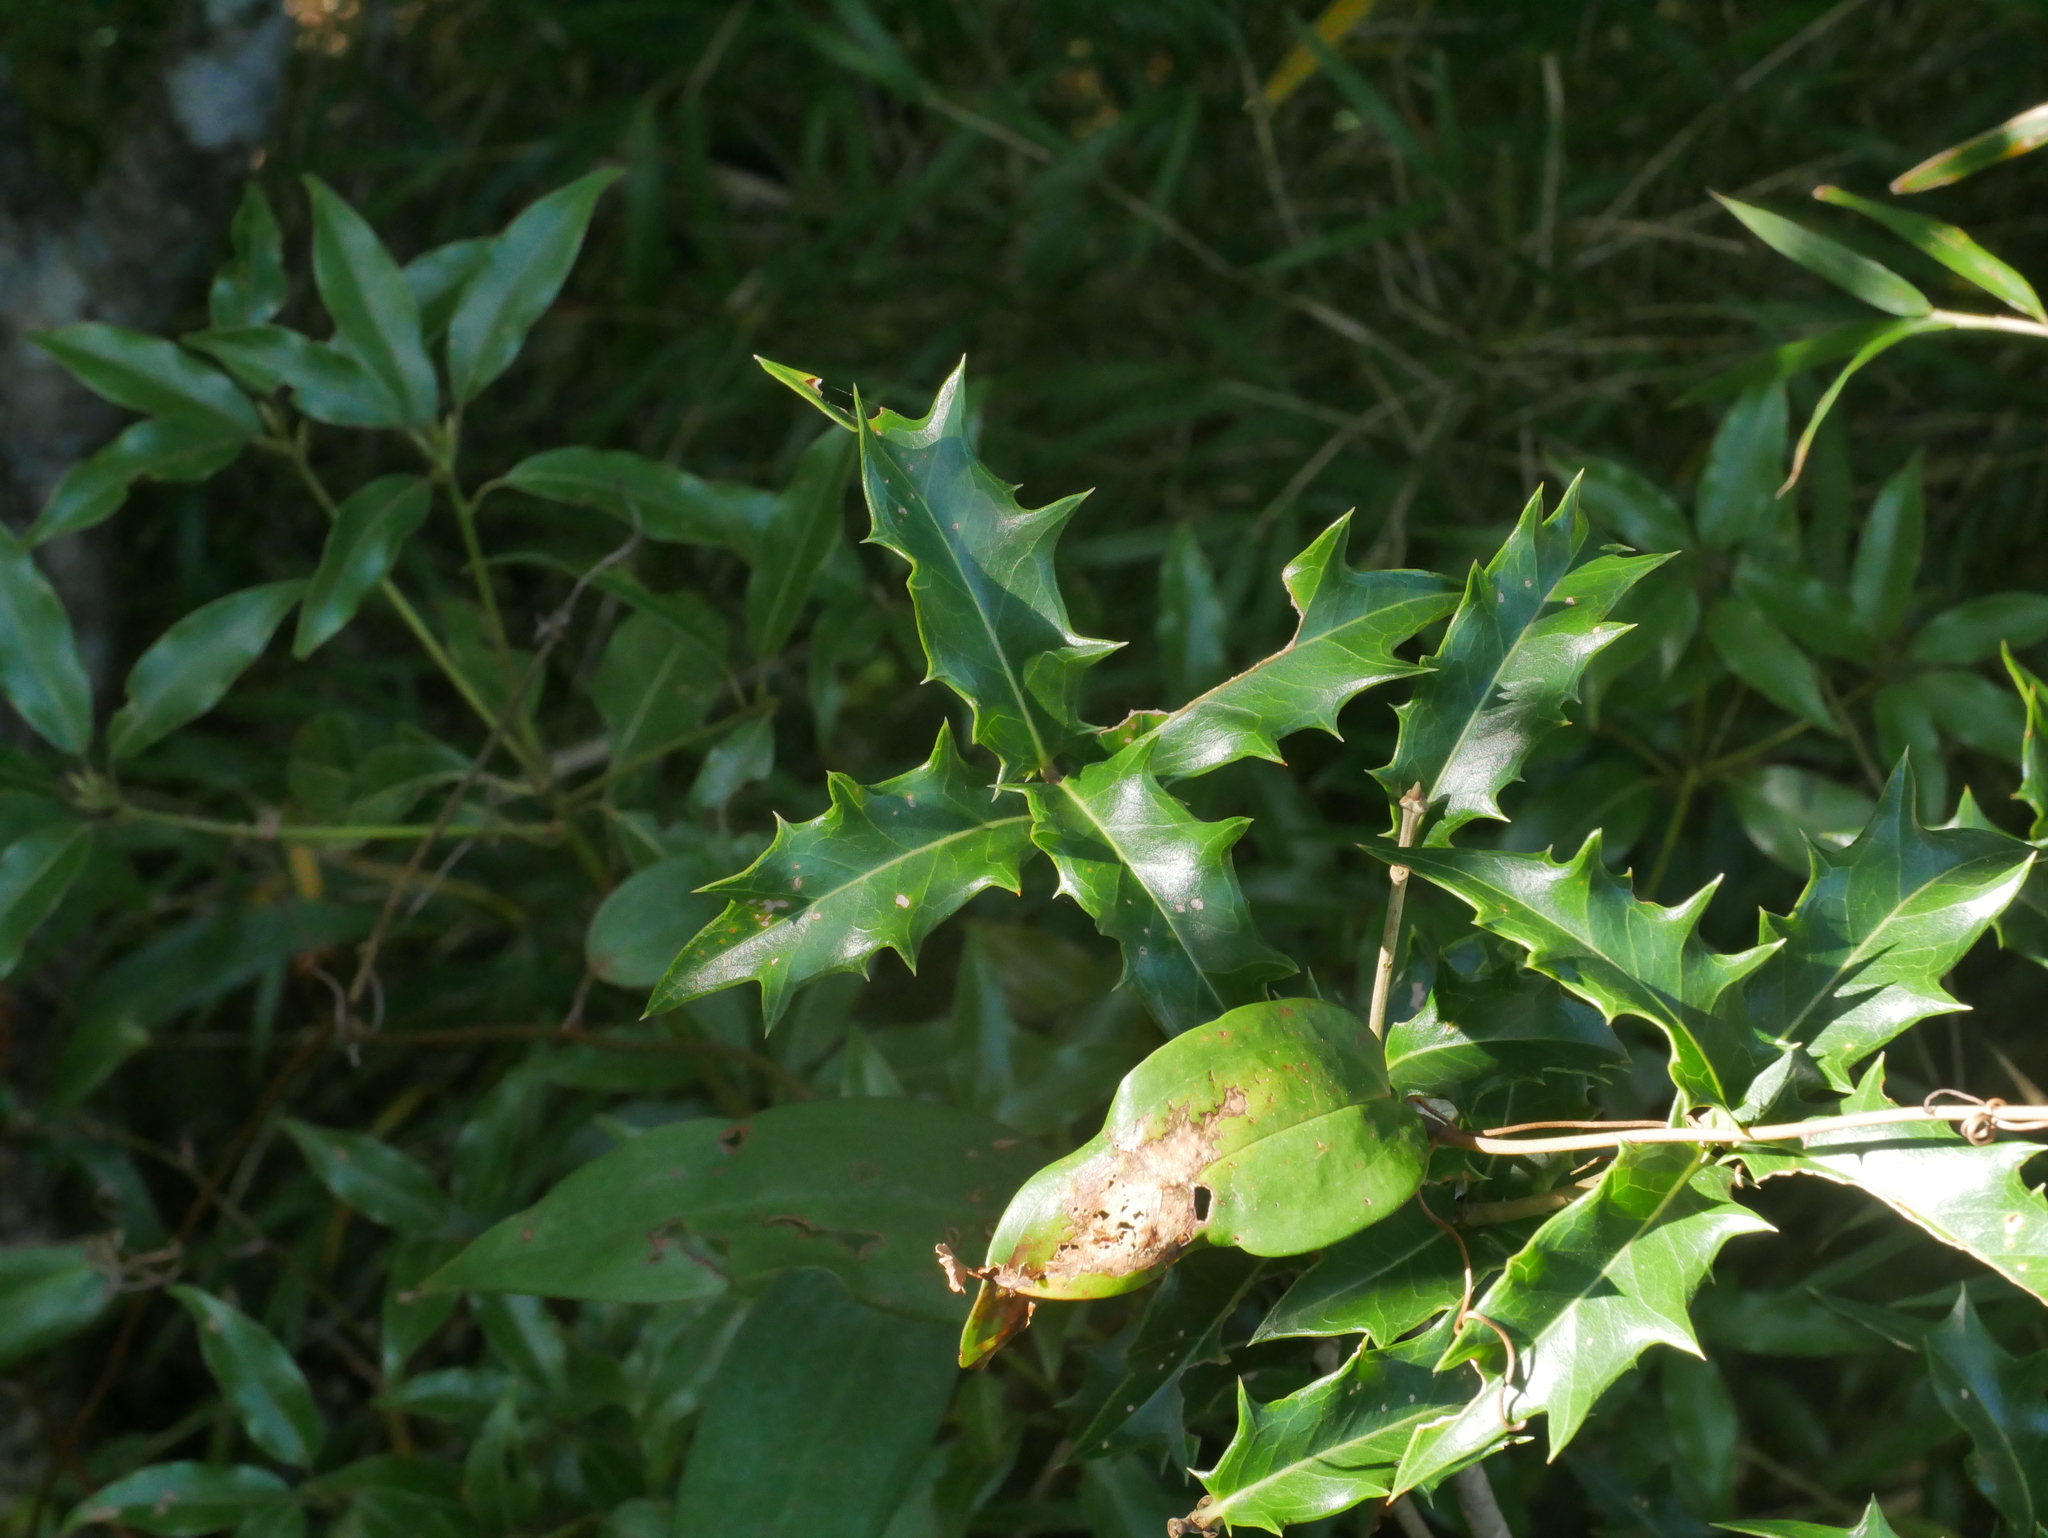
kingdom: Plantae
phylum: Tracheophyta
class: Magnoliopsida
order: Lamiales
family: Oleaceae
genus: Osmanthus
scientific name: Osmanthus heterophyllus
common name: Holly osmanthus
